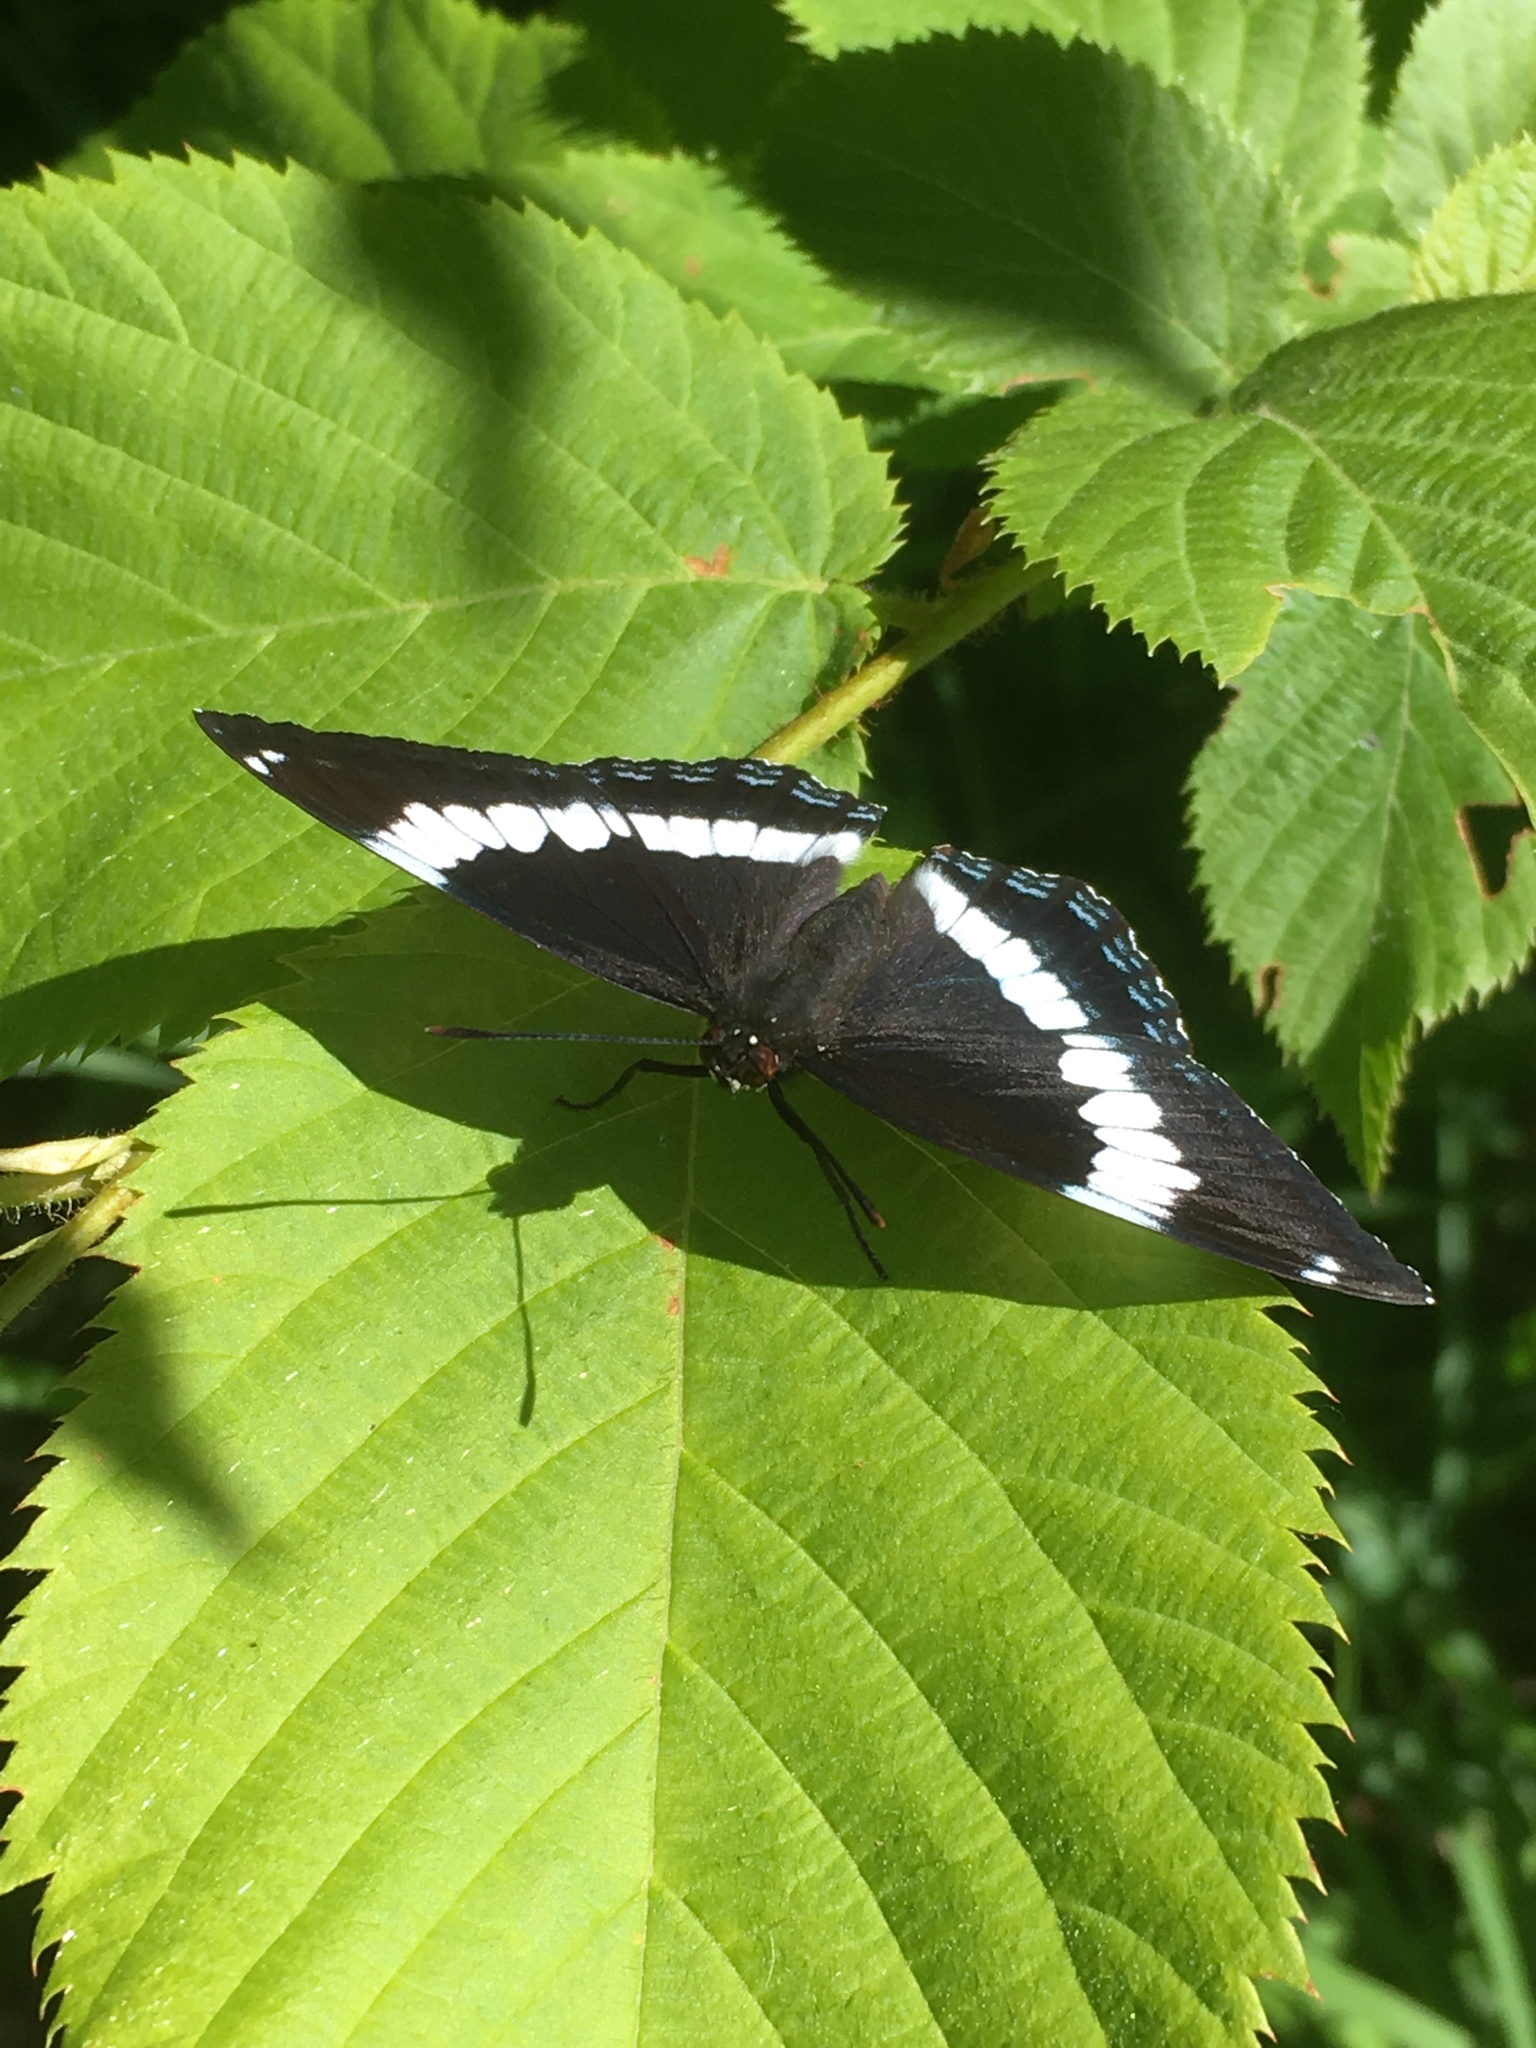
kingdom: Animalia
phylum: Arthropoda
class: Insecta
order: Lepidoptera
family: Nymphalidae
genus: Limenitis
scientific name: Limenitis arthemis
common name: Red-spotted admiral
